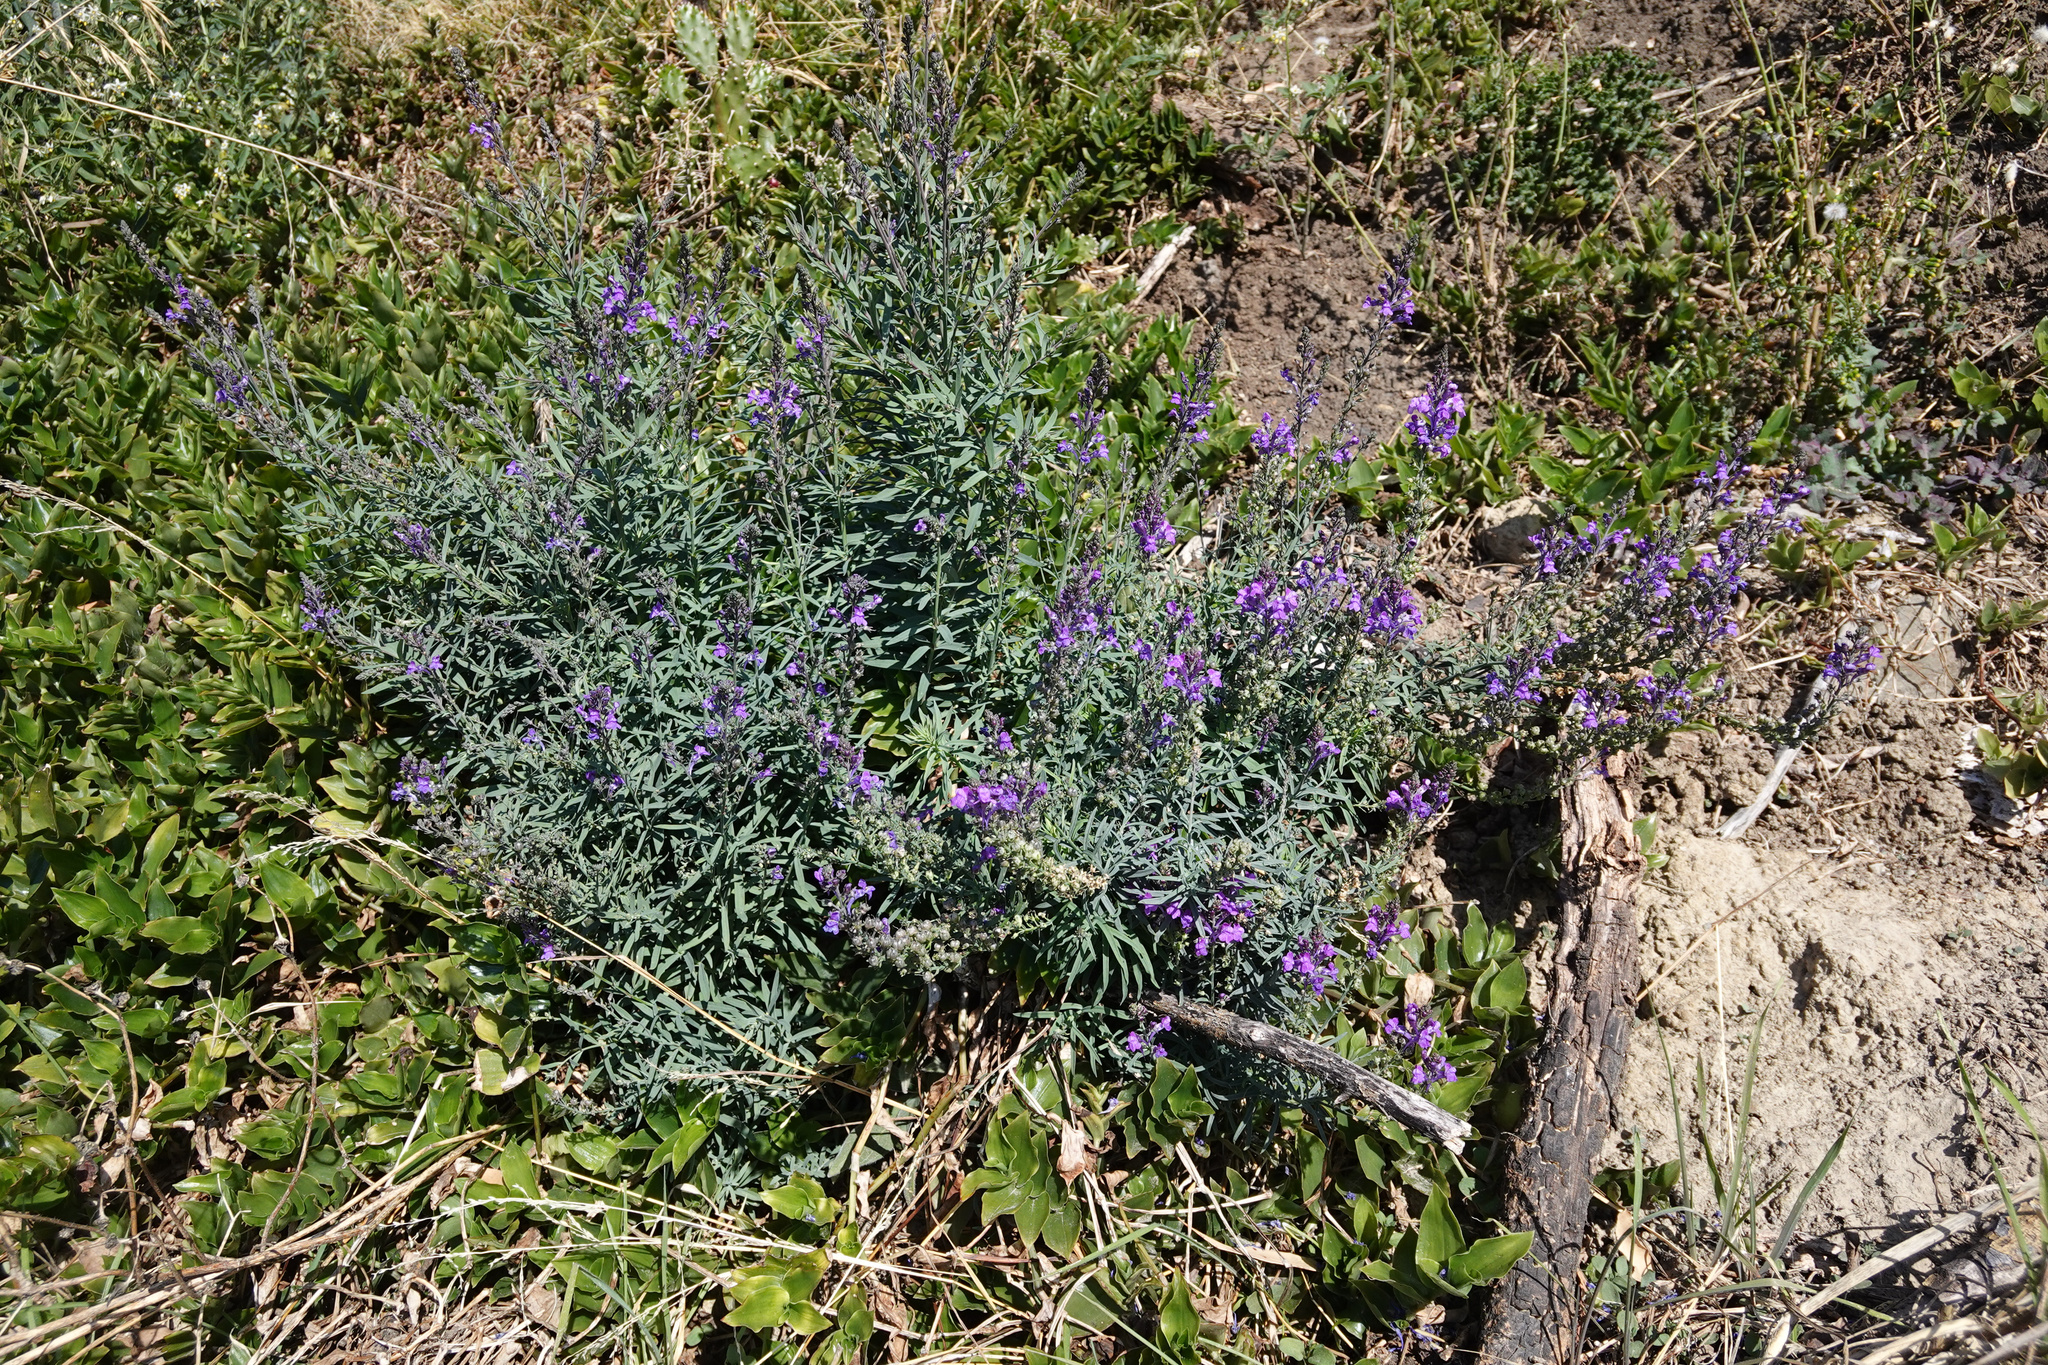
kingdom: Plantae
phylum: Tracheophyta
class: Magnoliopsida
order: Lamiales
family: Plantaginaceae
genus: Linaria
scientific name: Linaria purpurea
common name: Purple toadflax
